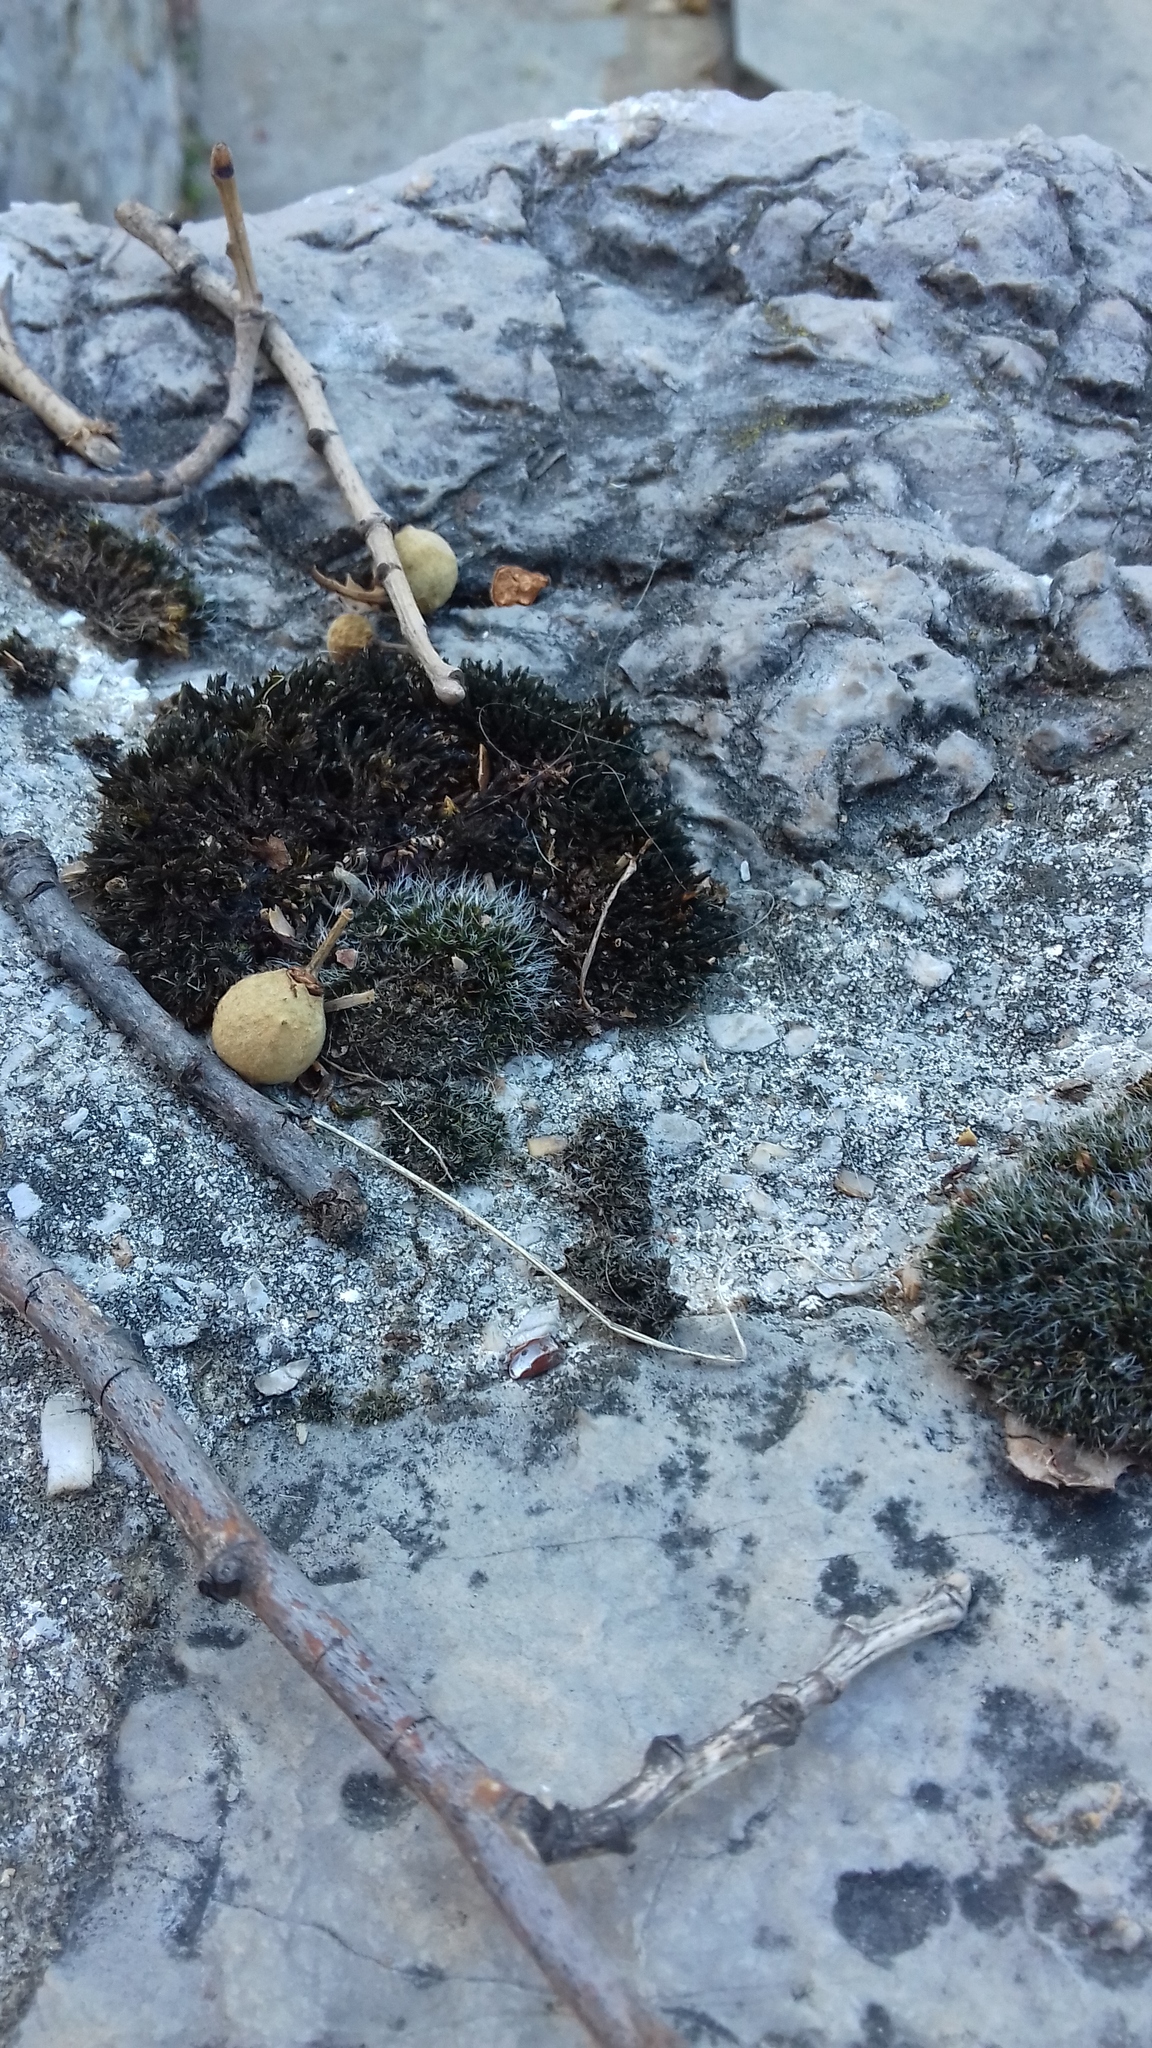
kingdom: Plantae
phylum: Bryophyta
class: Bryopsida
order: Grimmiales
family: Grimmiaceae
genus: Grimmia
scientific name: Grimmia pulvinata
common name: Grey-cushioned grimmia
